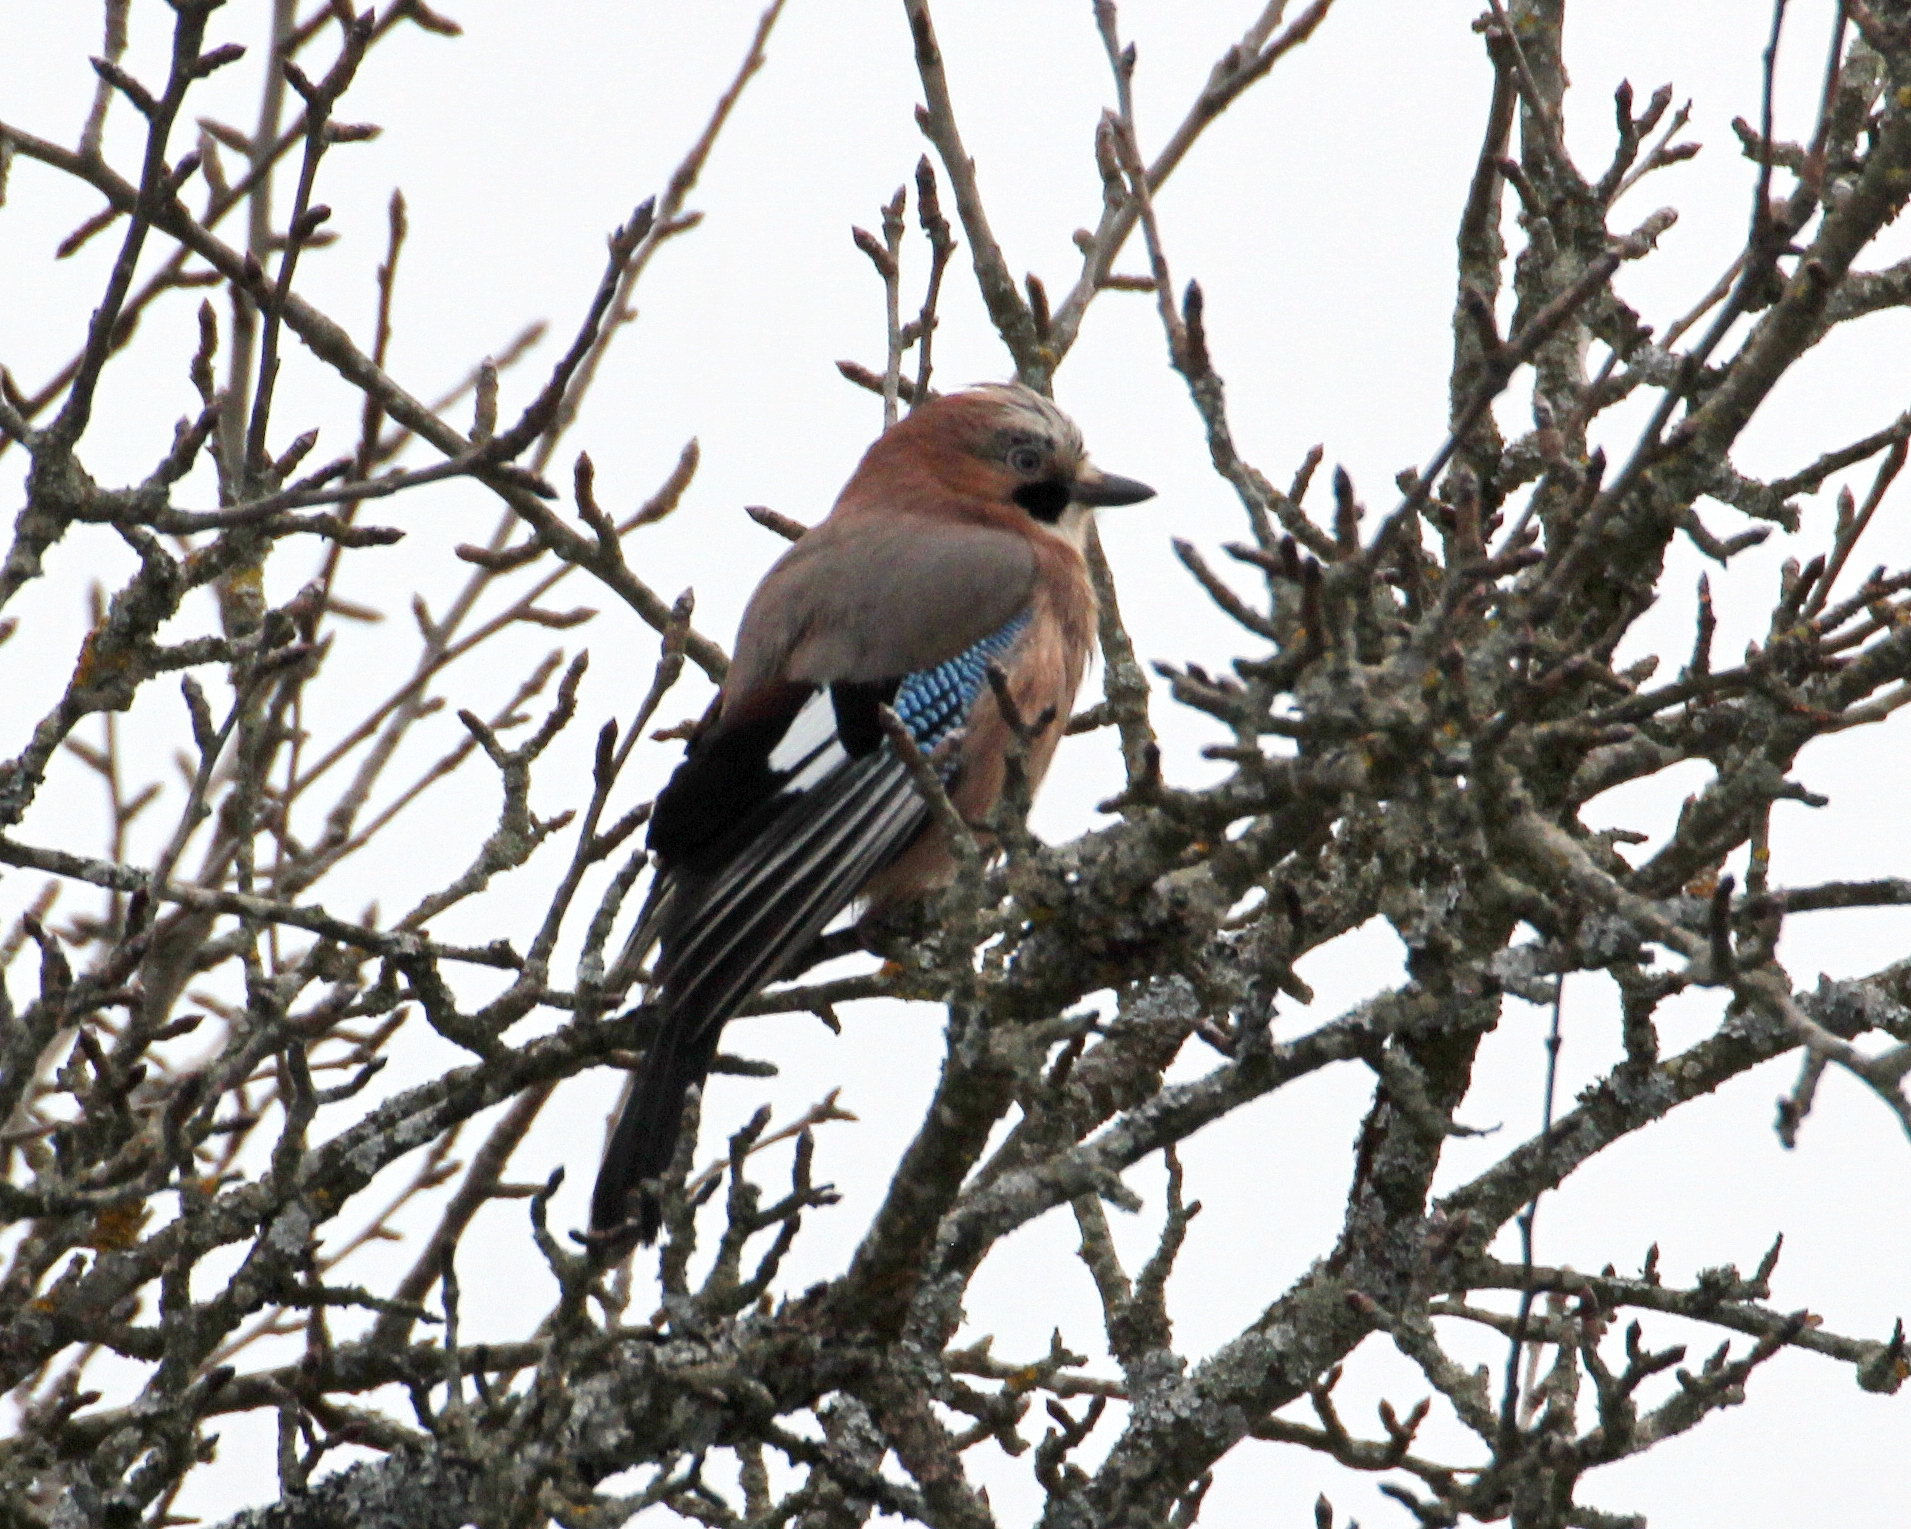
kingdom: Animalia
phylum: Chordata
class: Aves
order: Passeriformes
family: Corvidae
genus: Garrulus
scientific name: Garrulus glandarius
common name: Eurasian jay
